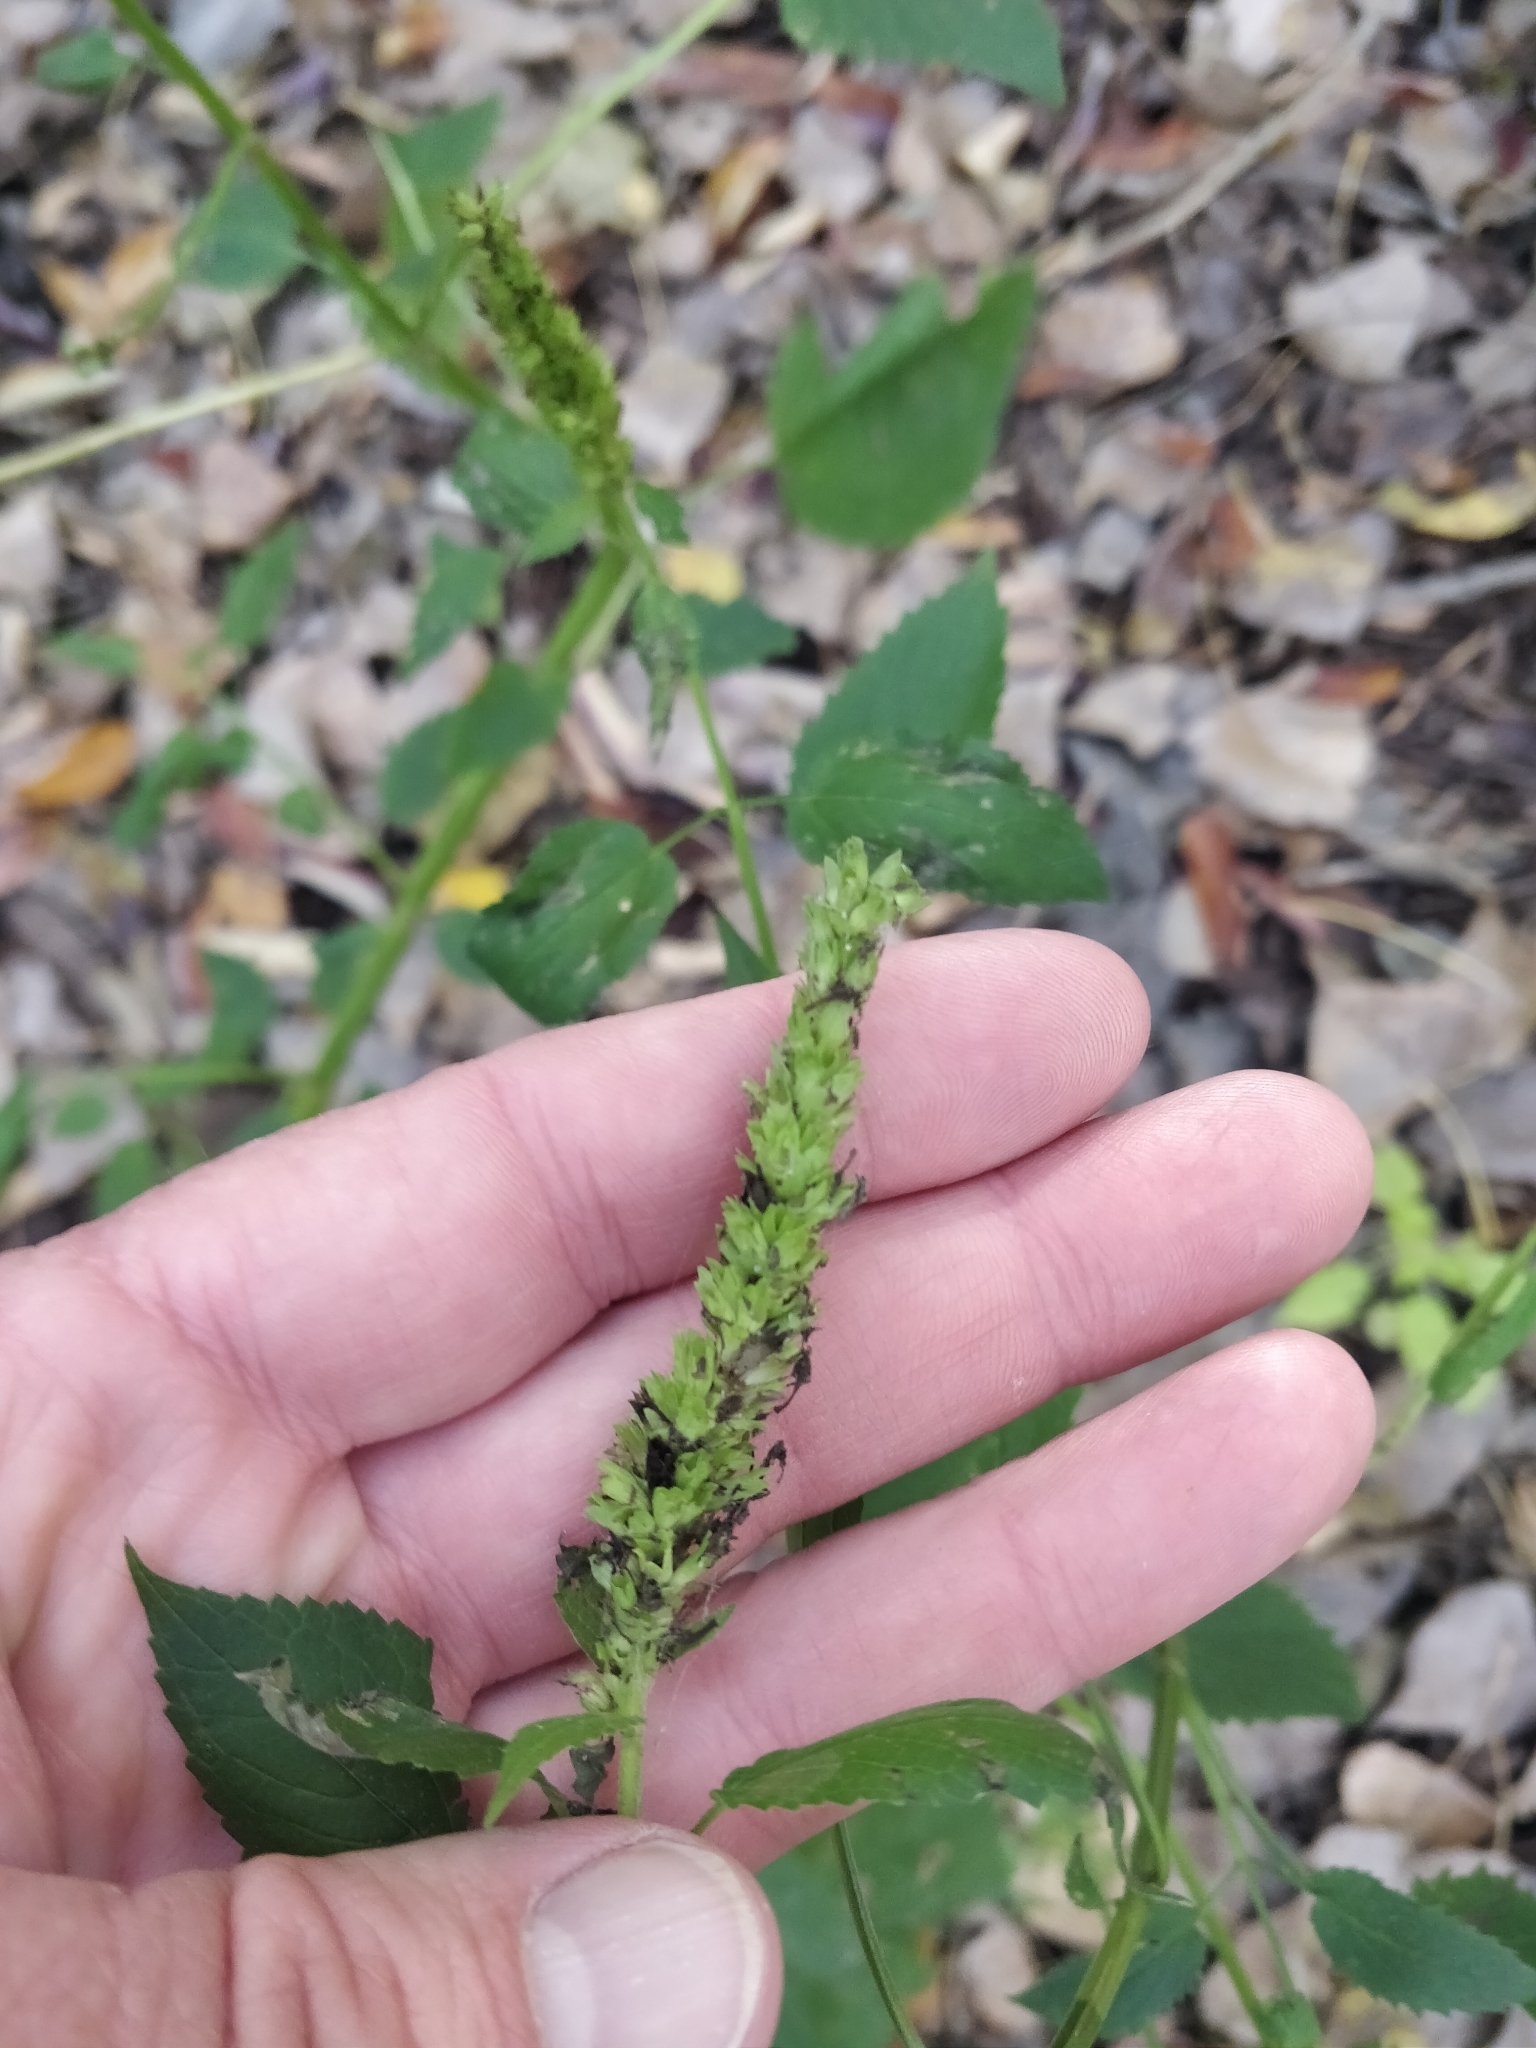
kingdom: Plantae
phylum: Tracheophyta
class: Magnoliopsida
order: Lamiales
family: Lamiaceae
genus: Agastache
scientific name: Agastache nepetoides
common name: Catnip giant hyssop
